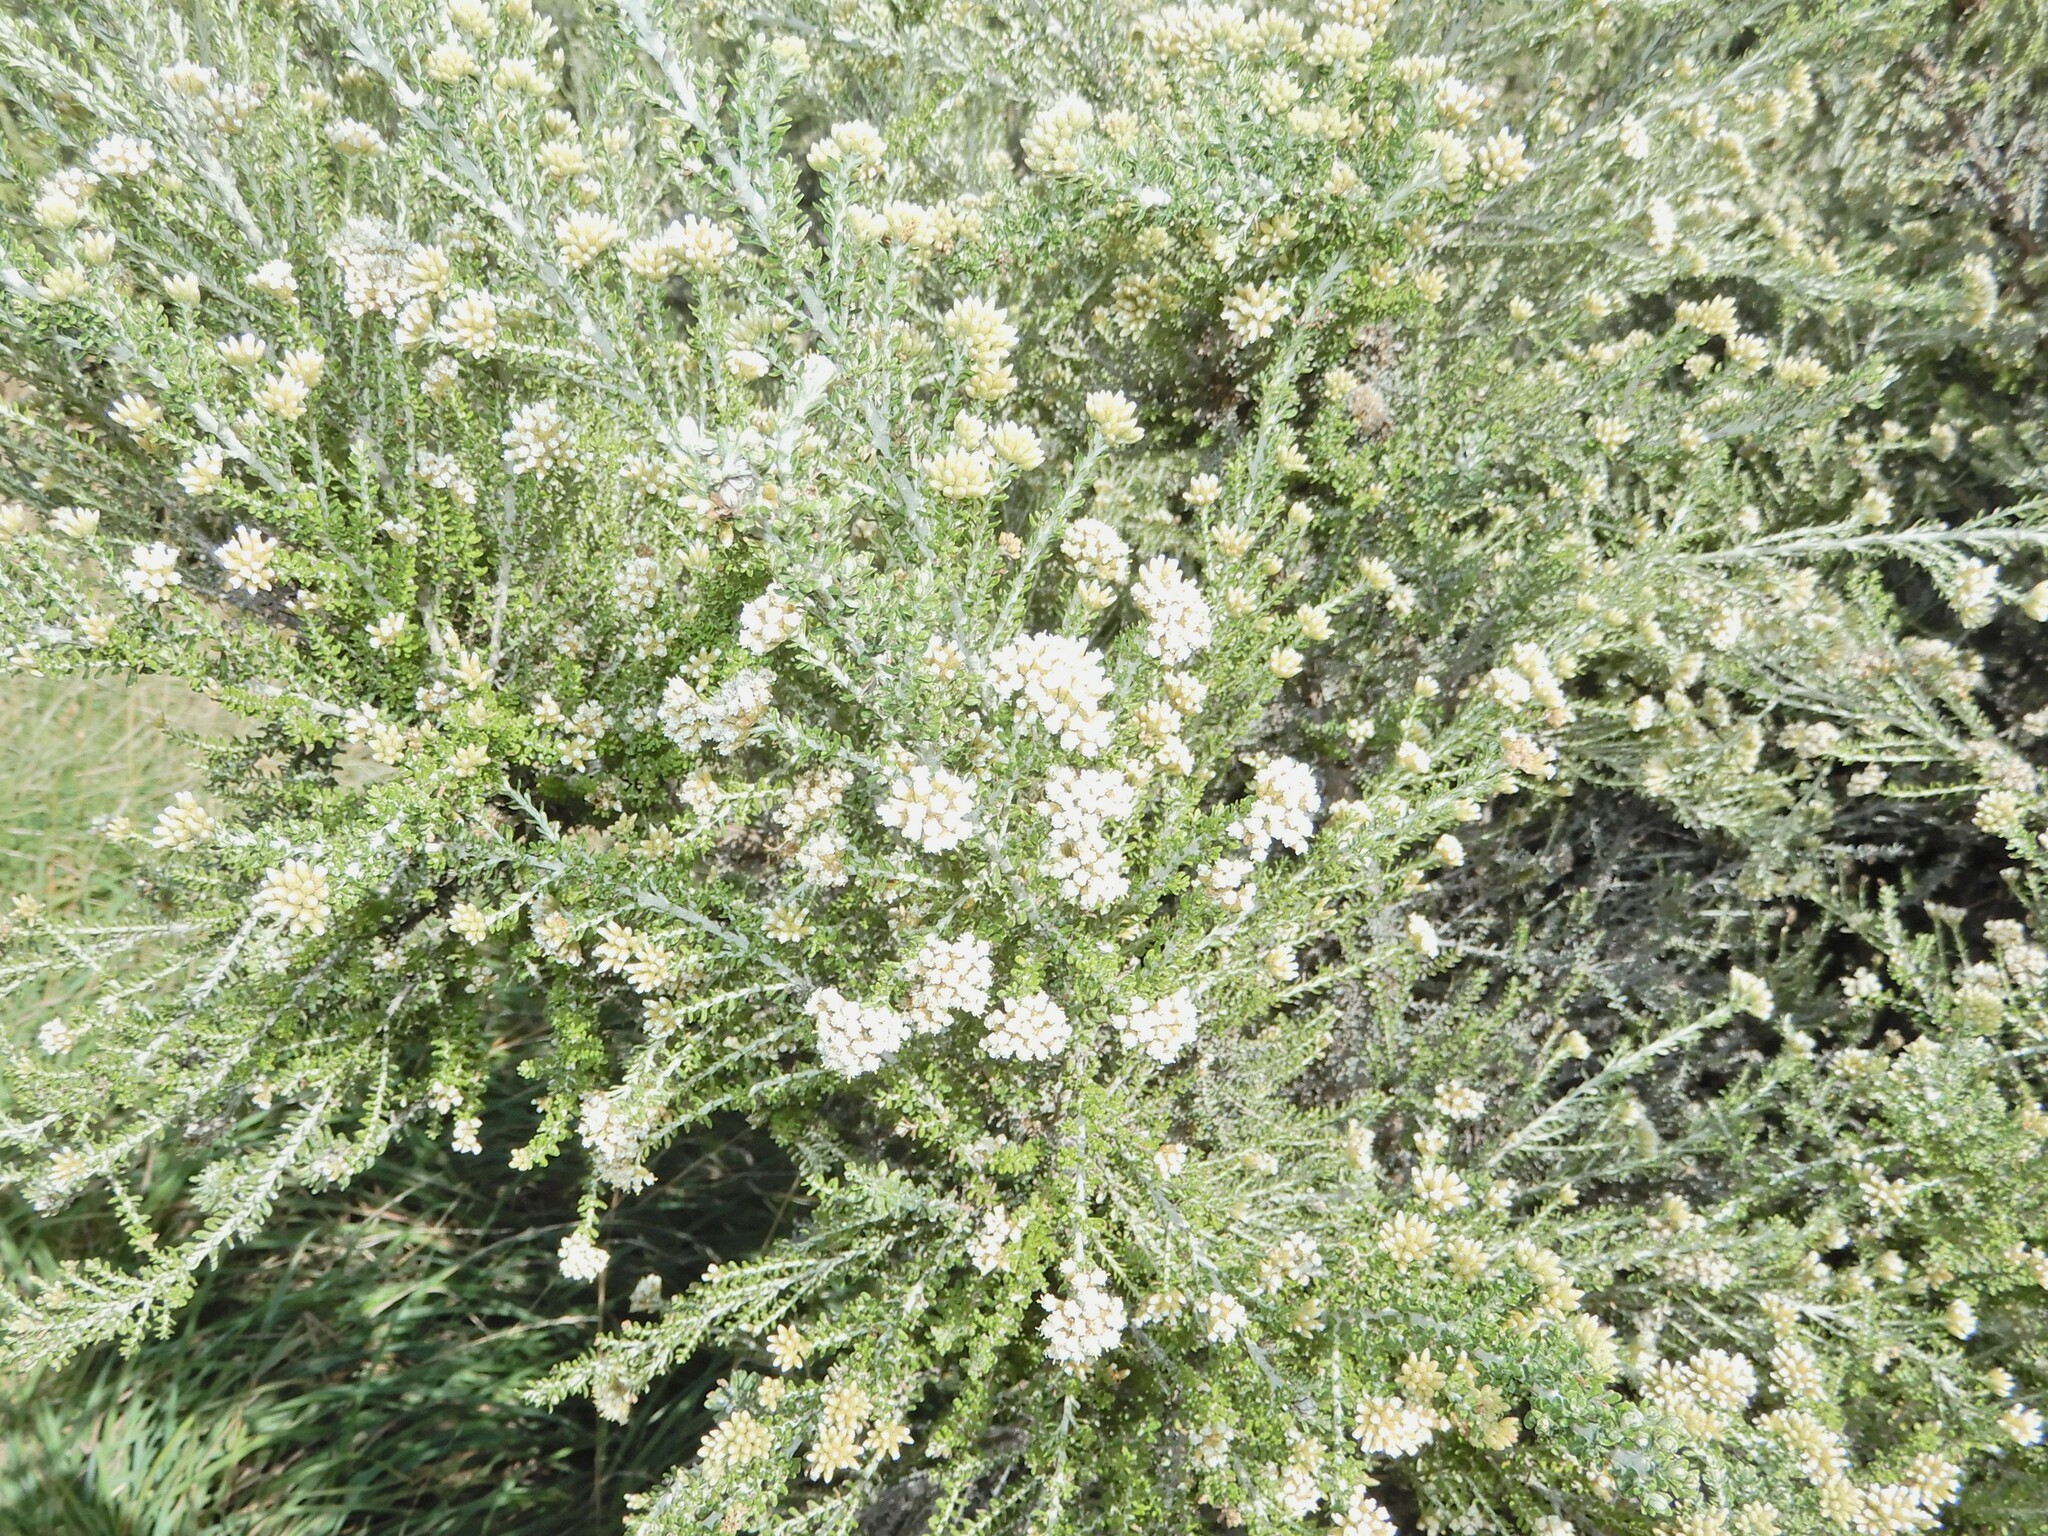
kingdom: Plantae
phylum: Tracheophyta
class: Magnoliopsida
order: Asterales
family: Asteraceae
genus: Ozothamnus
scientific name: Ozothamnus leptophyllus
